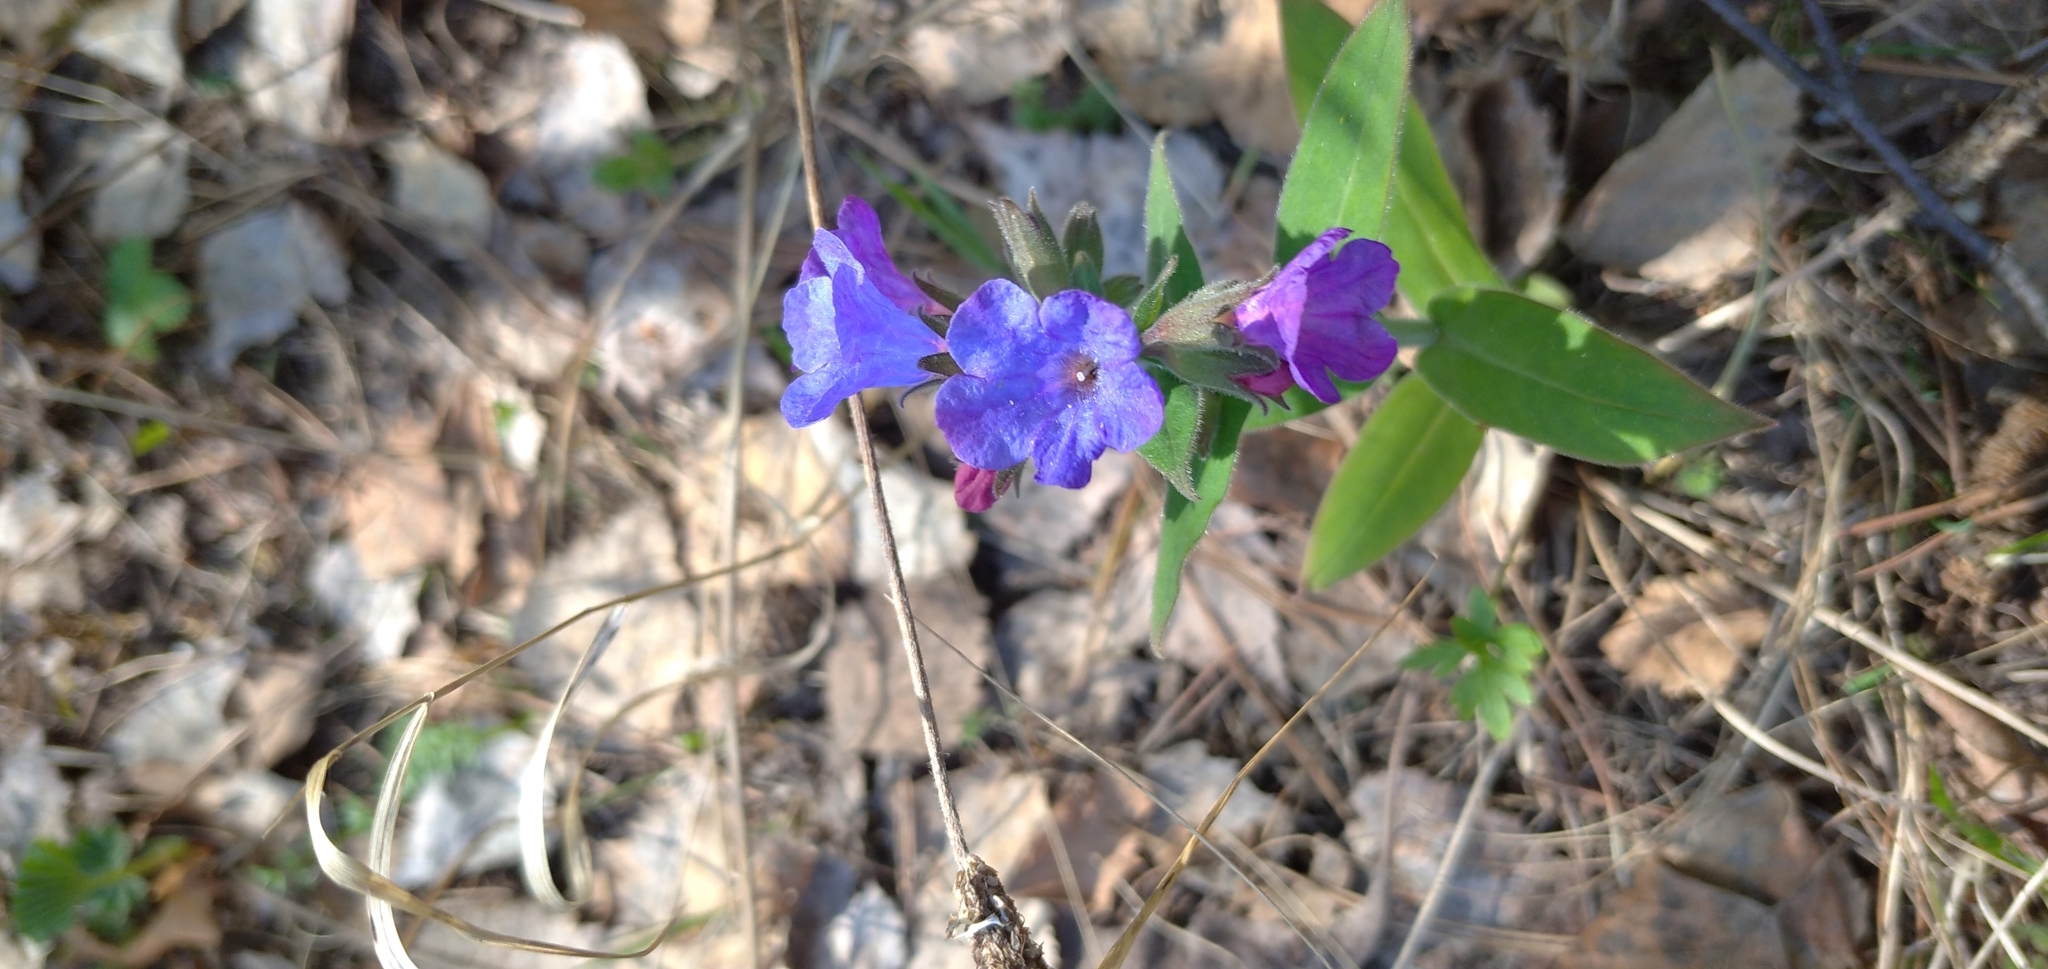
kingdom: Plantae
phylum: Tracheophyta
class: Magnoliopsida
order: Boraginales
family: Boraginaceae
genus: Pulmonaria
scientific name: Pulmonaria mollis
